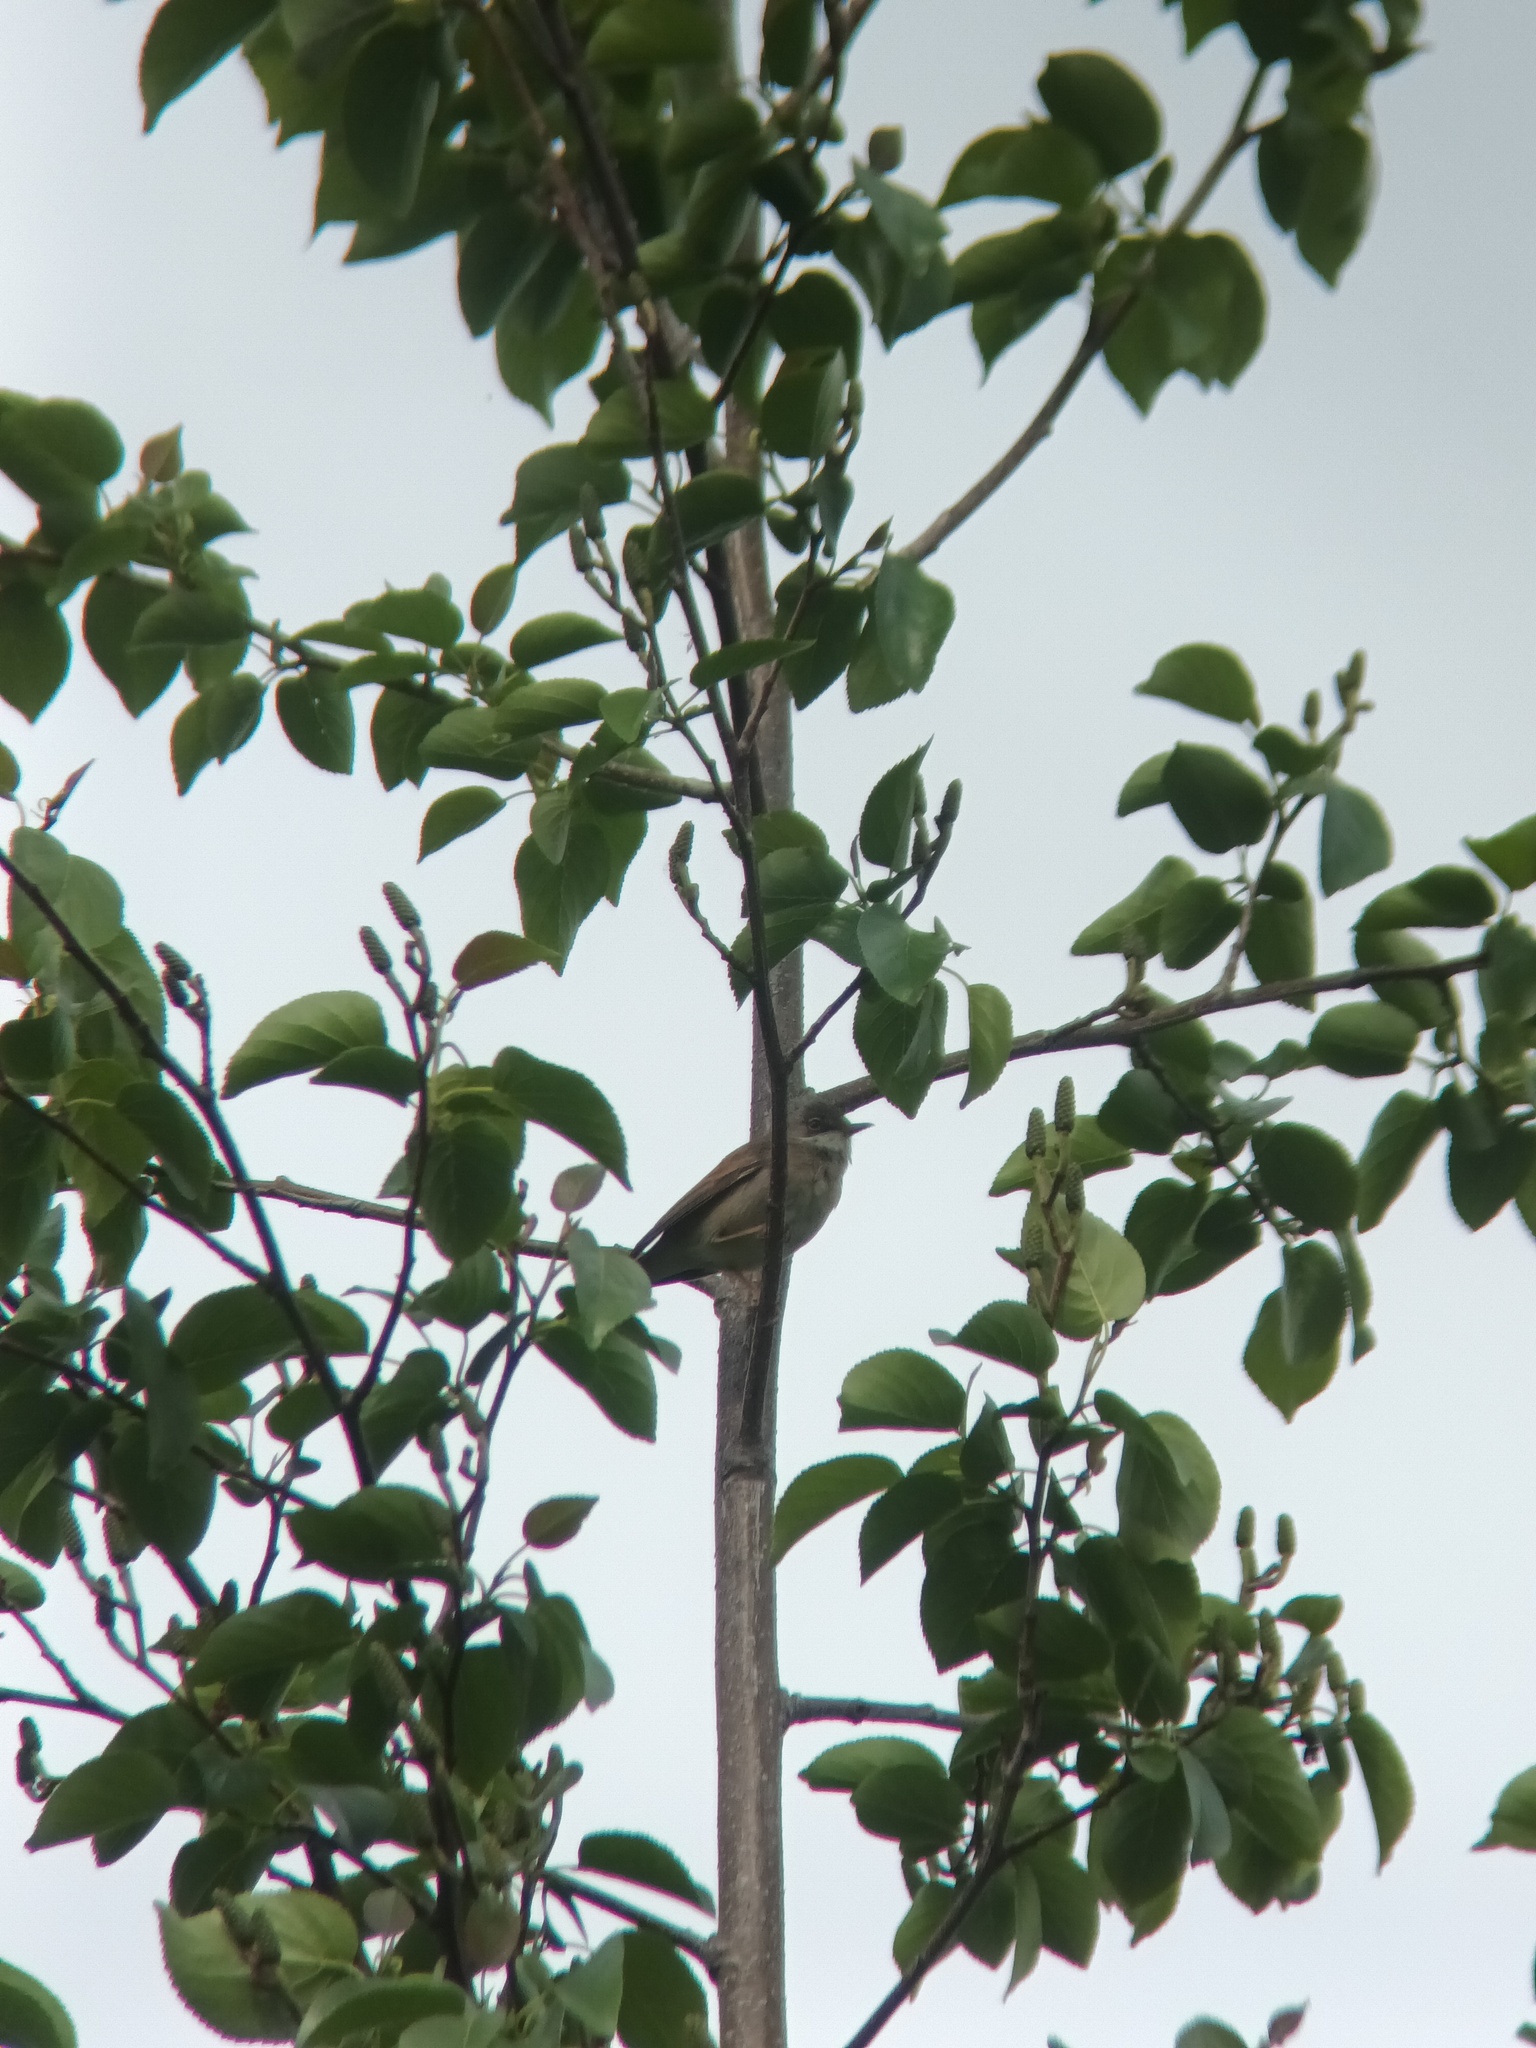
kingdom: Animalia
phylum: Chordata
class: Aves
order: Passeriformes
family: Sylviidae
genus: Sylvia
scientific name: Sylvia communis
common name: Common whitethroat
